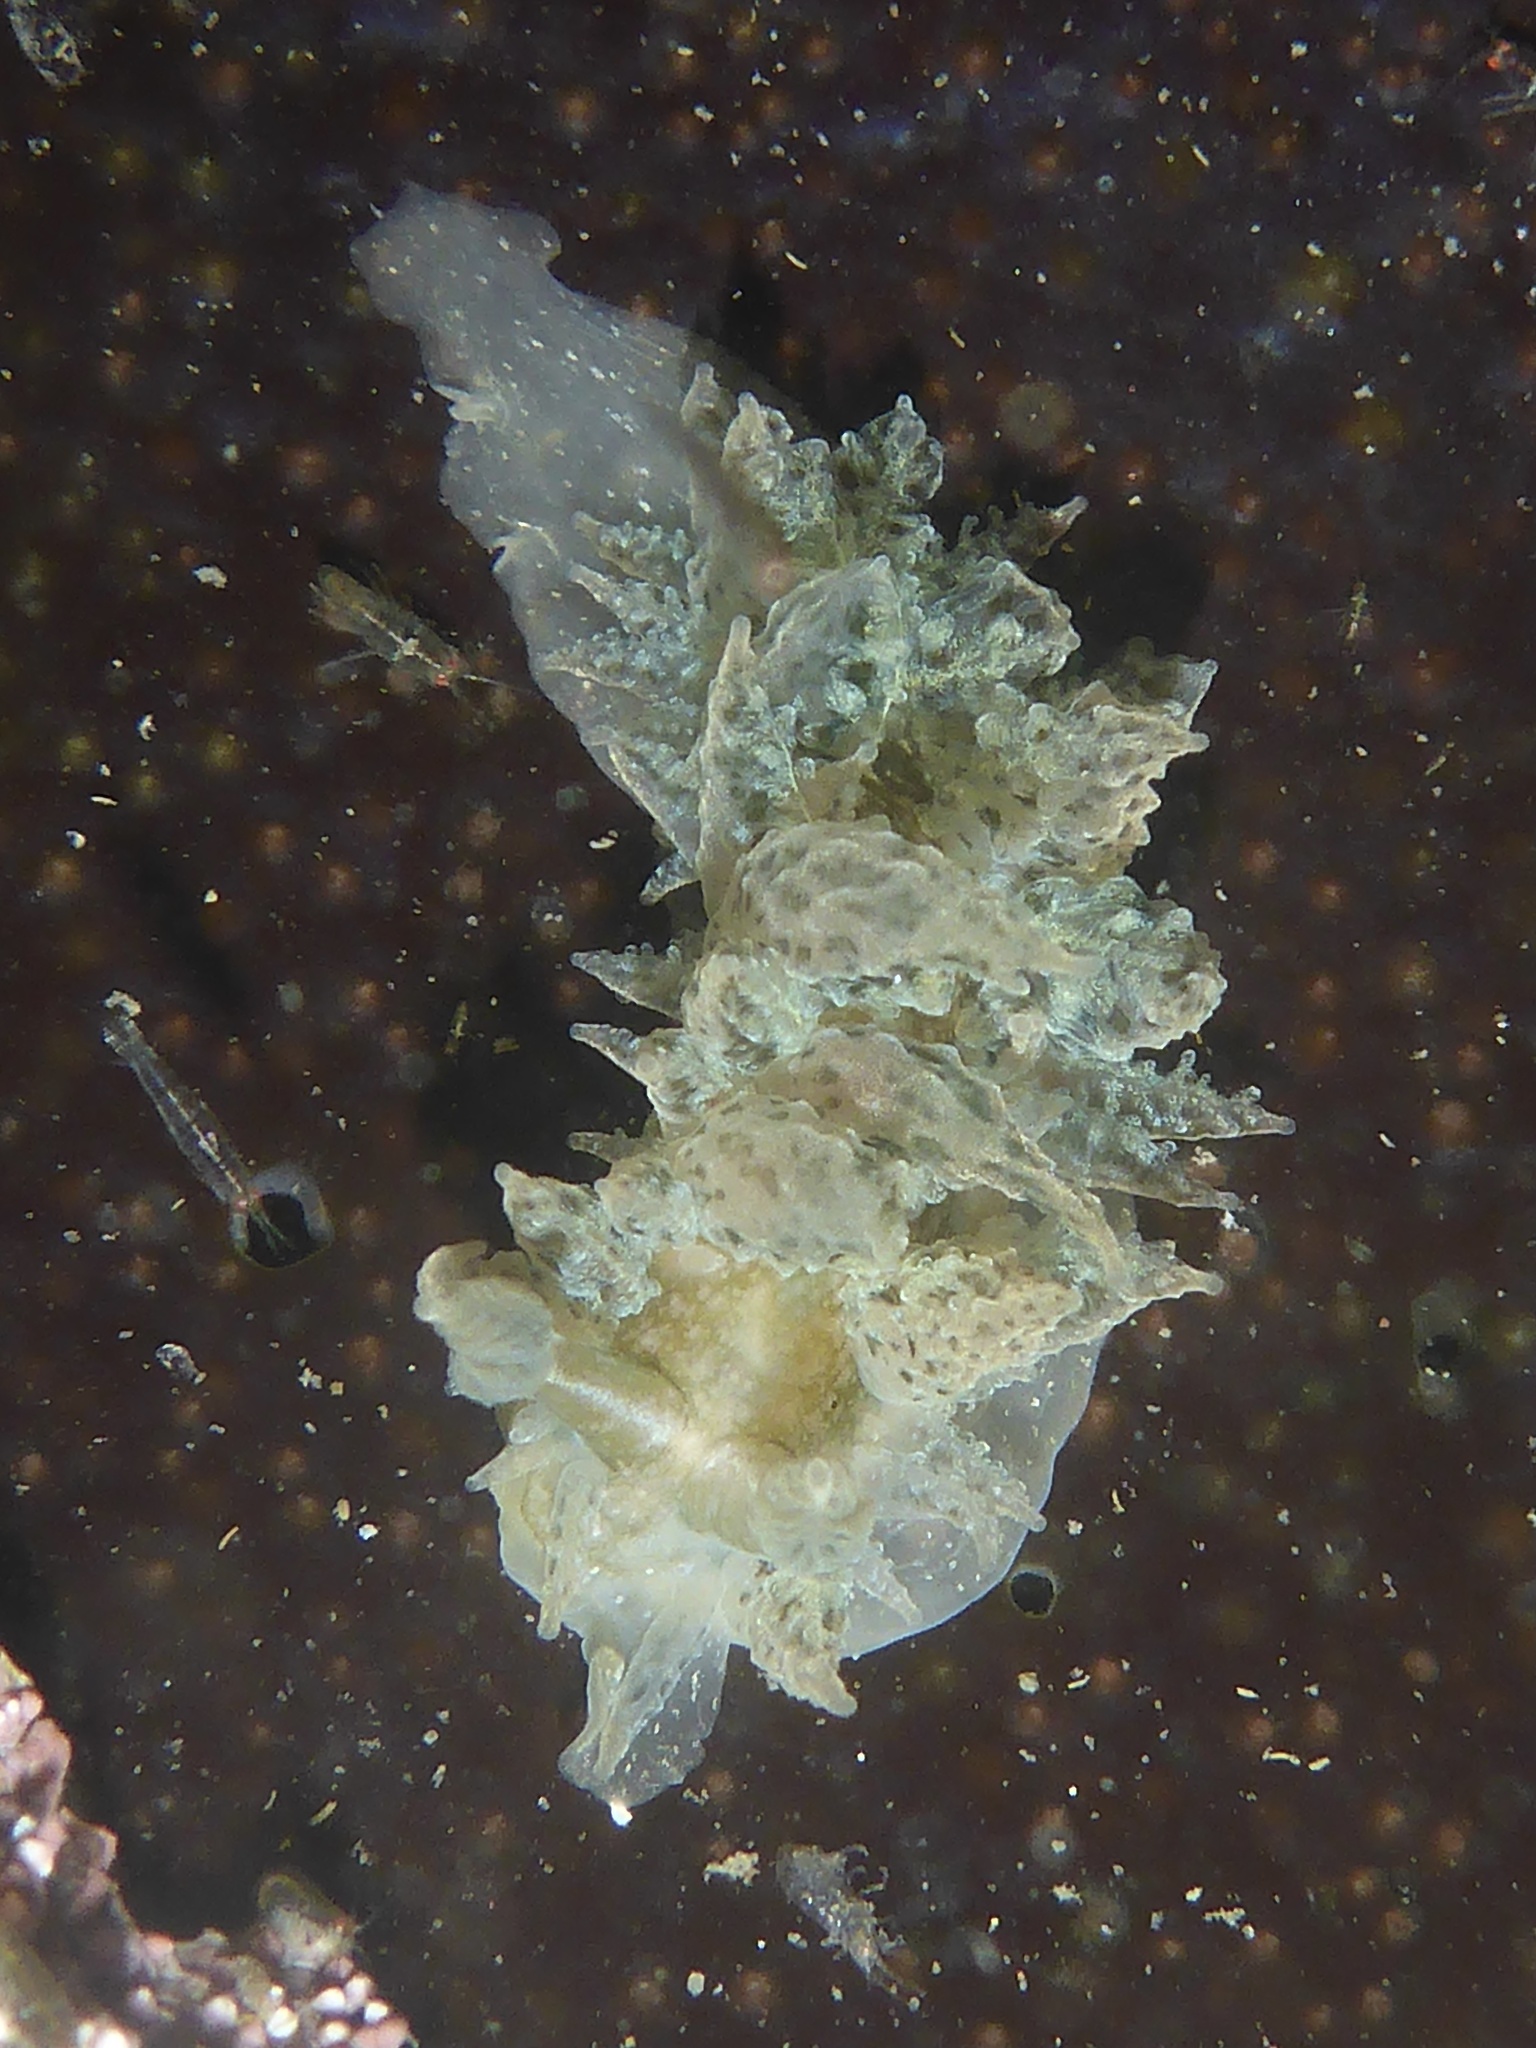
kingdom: Animalia
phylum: Mollusca
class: Gastropoda
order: Nudibranchia
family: Dironidae
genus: Dirona
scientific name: Dirona picta
